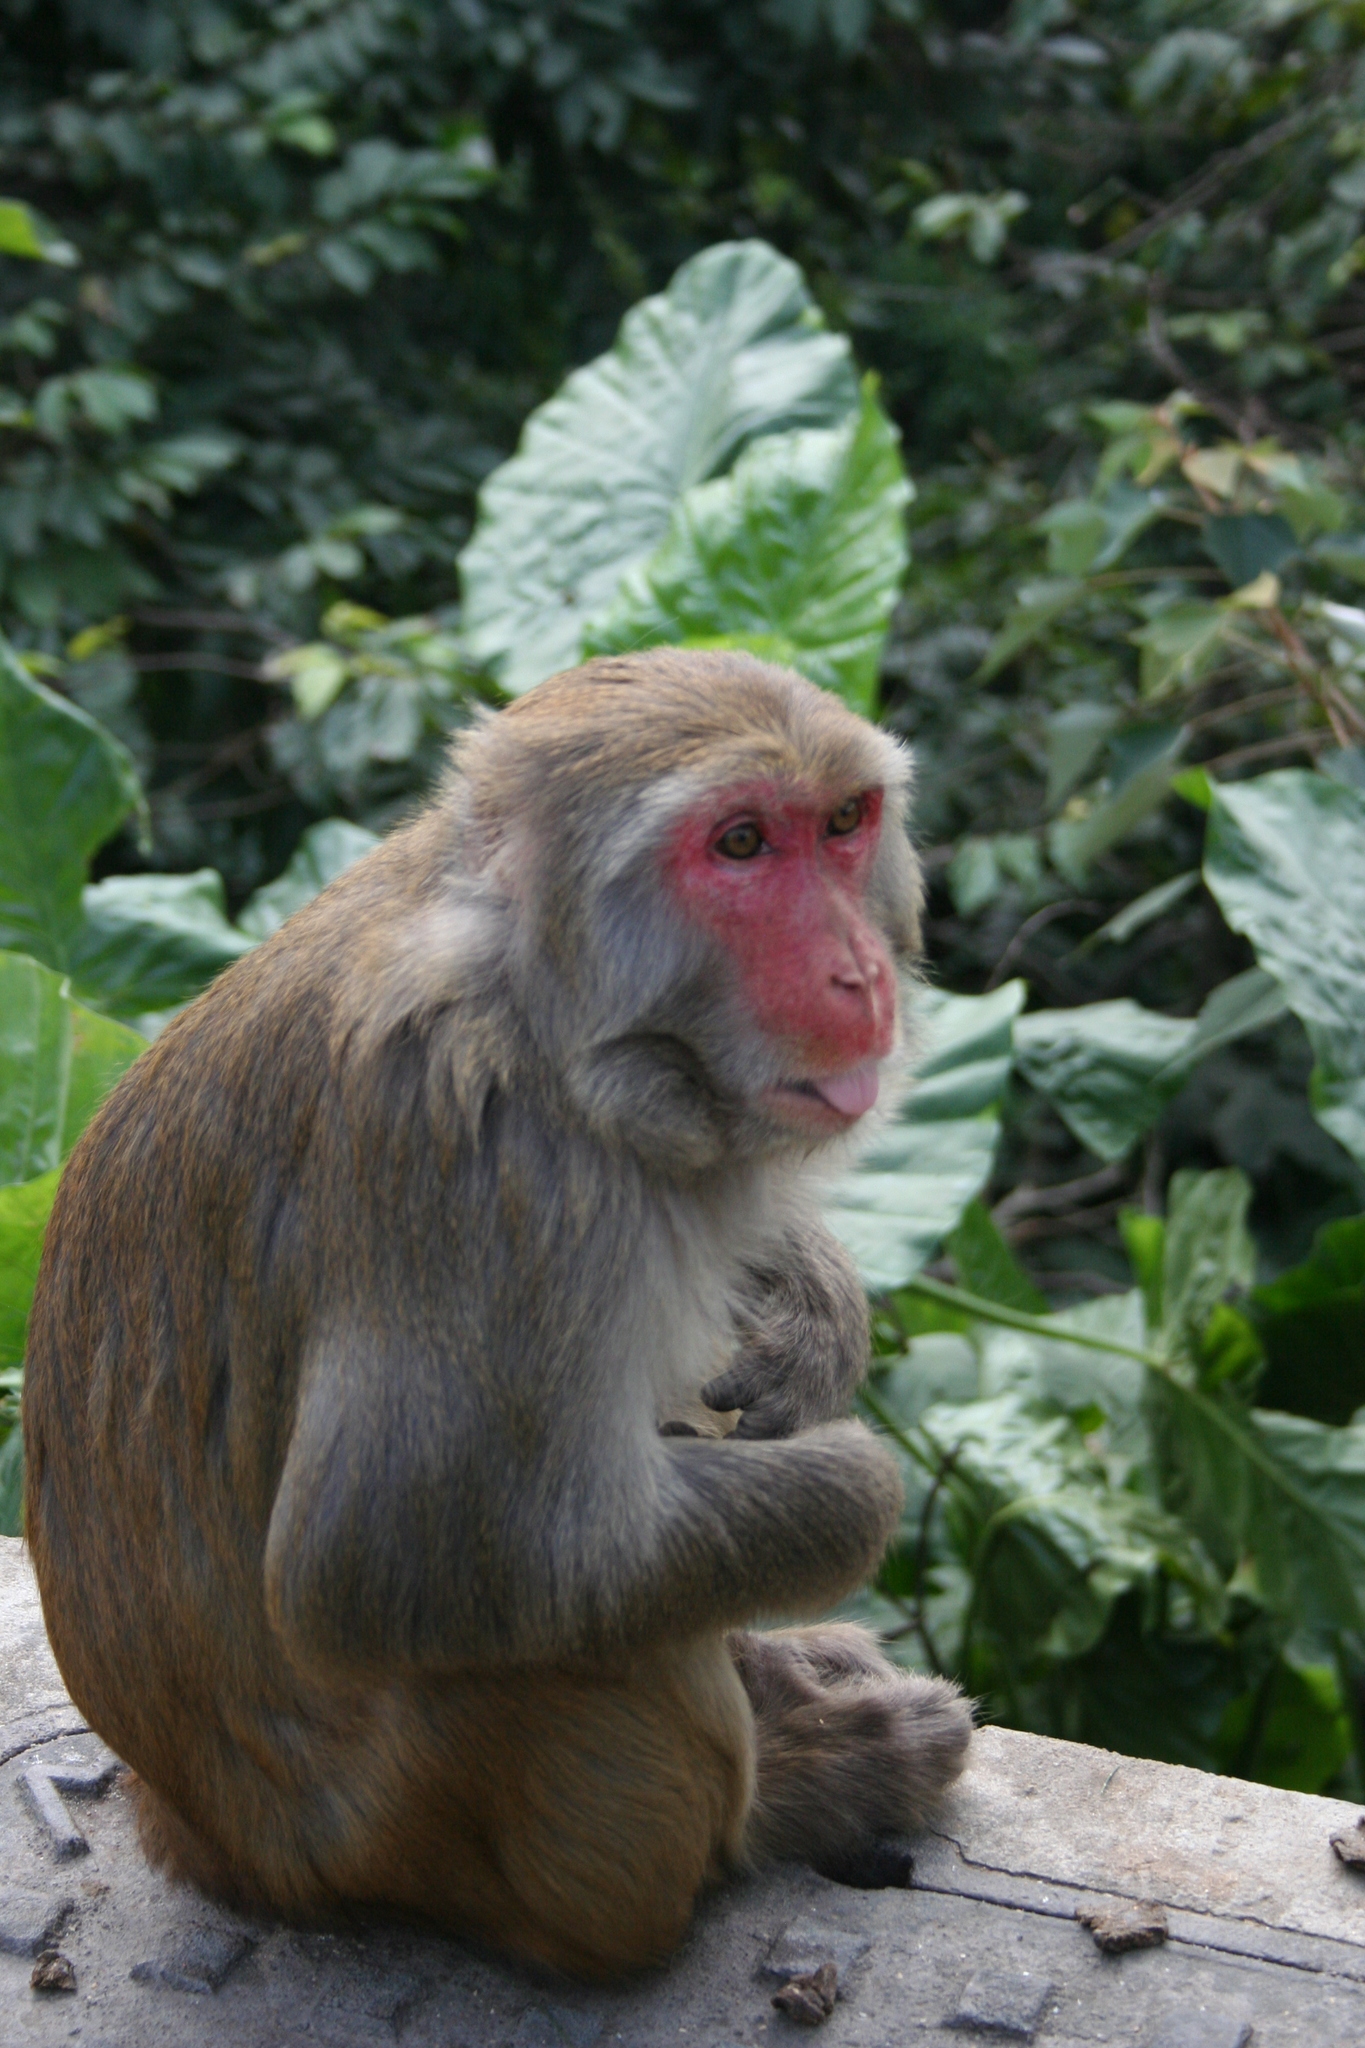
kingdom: Animalia
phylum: Chordata
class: Mammalia
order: Primates
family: Cercopithecidae
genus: Macaca
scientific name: Macaca mulatta
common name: Rhesus monkey
